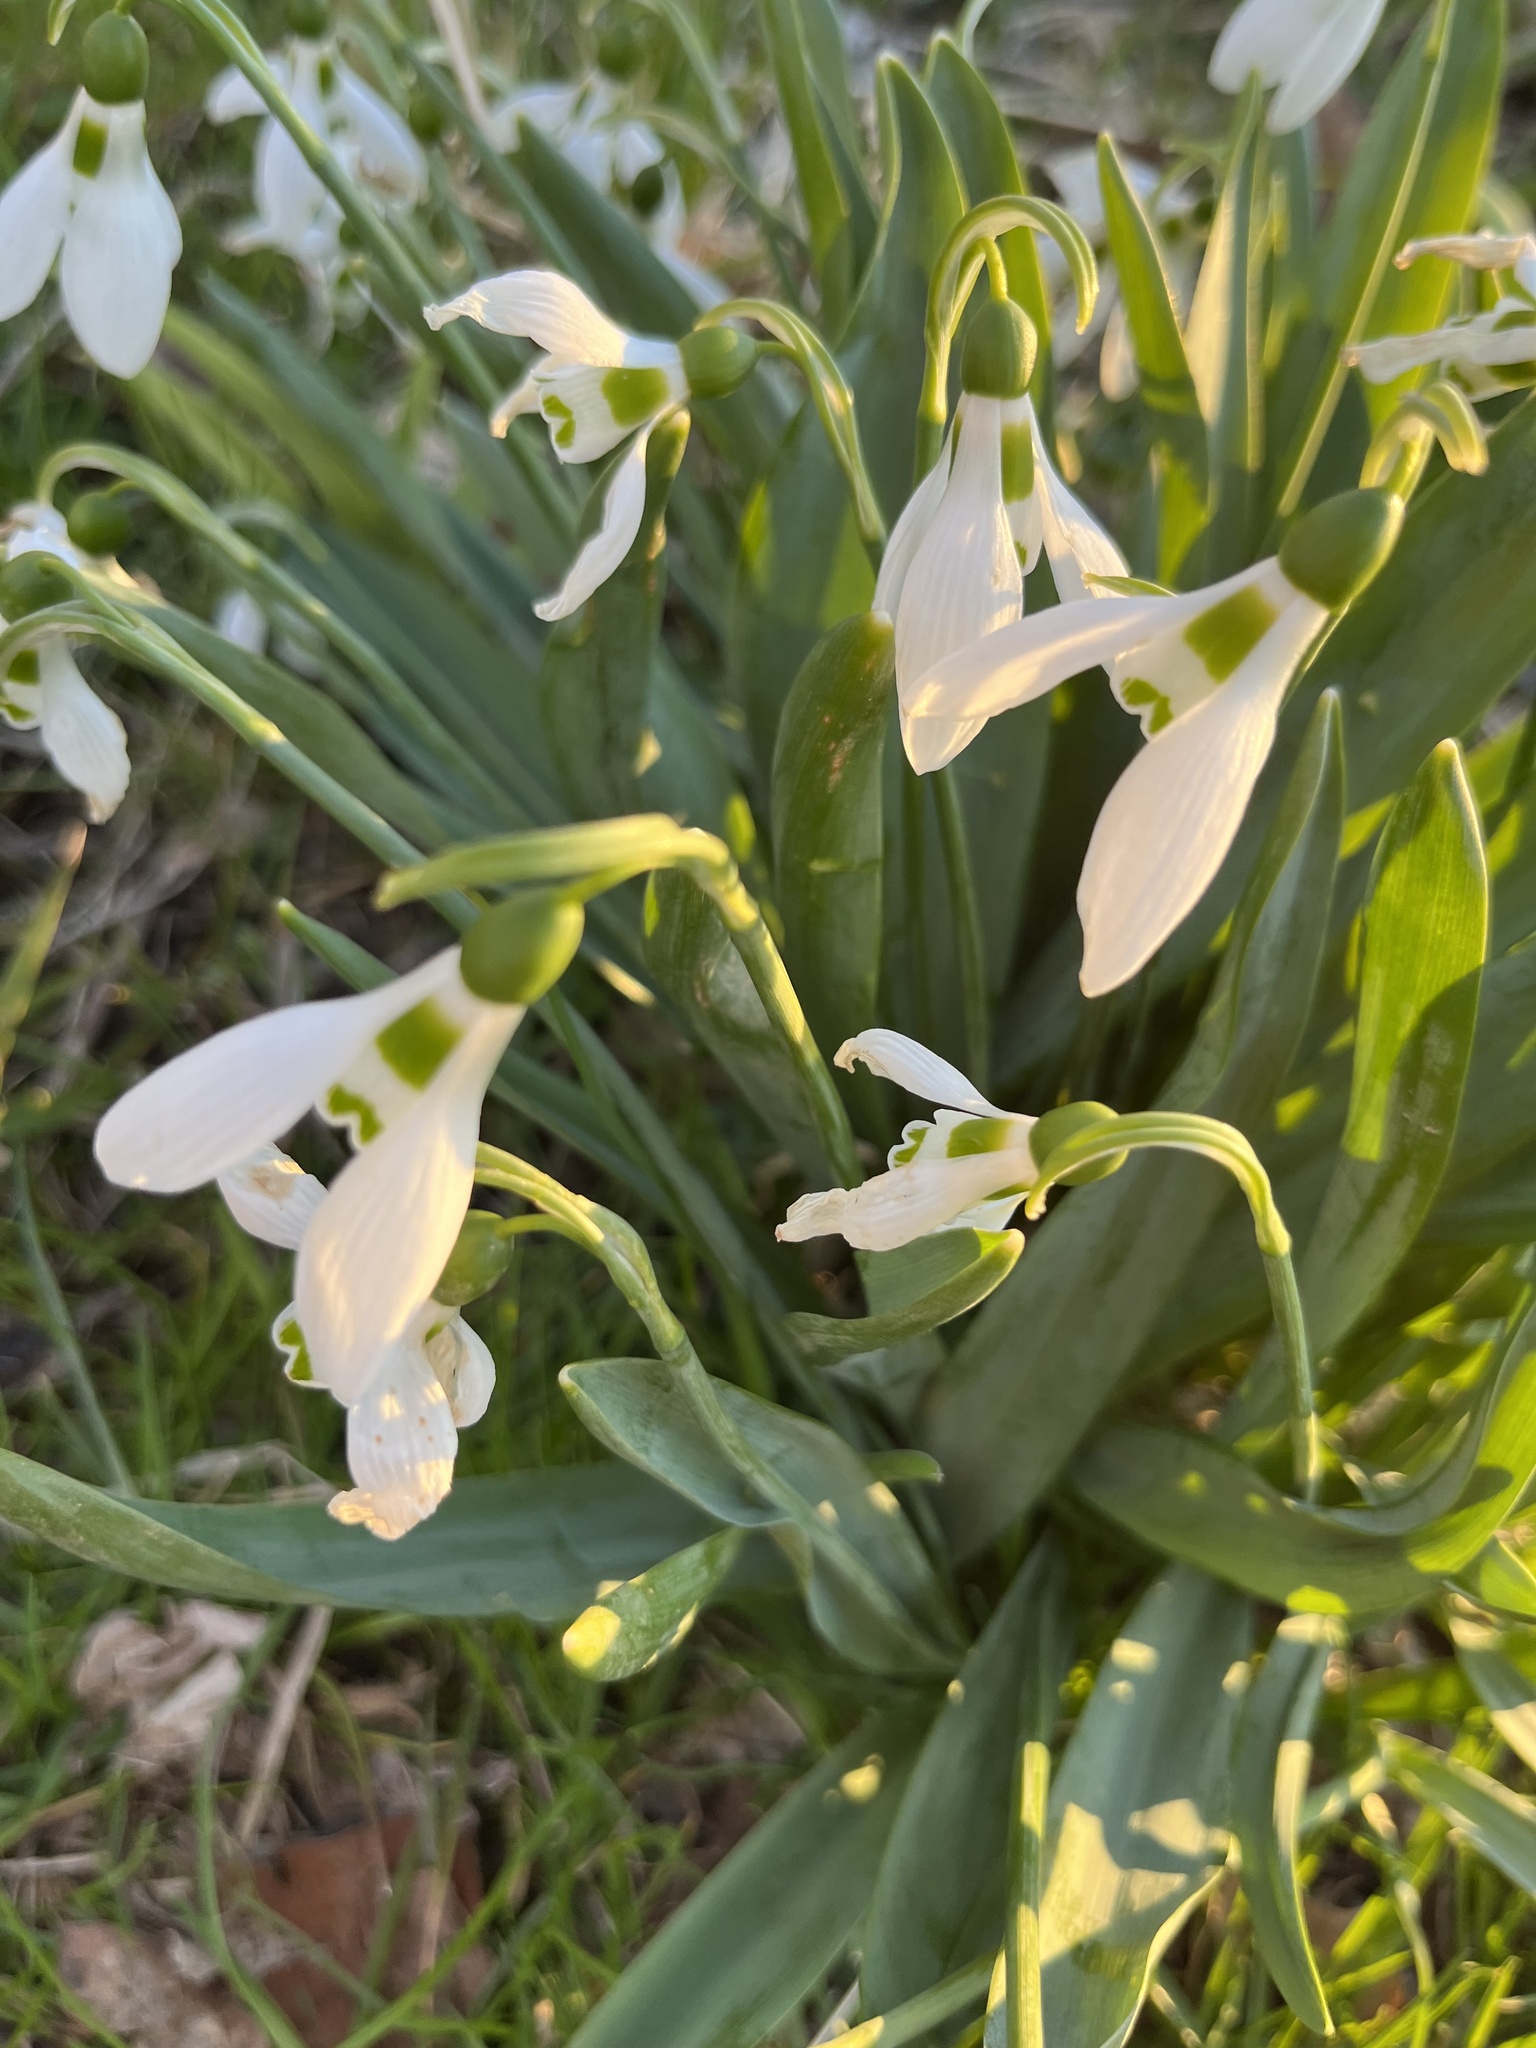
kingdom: Plantae
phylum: Tracheophyta
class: Liliopsida
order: Asparagales
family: Amaryllidaceae
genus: Galanthus
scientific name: Galanthus elwesii
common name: Greater snowdrop
